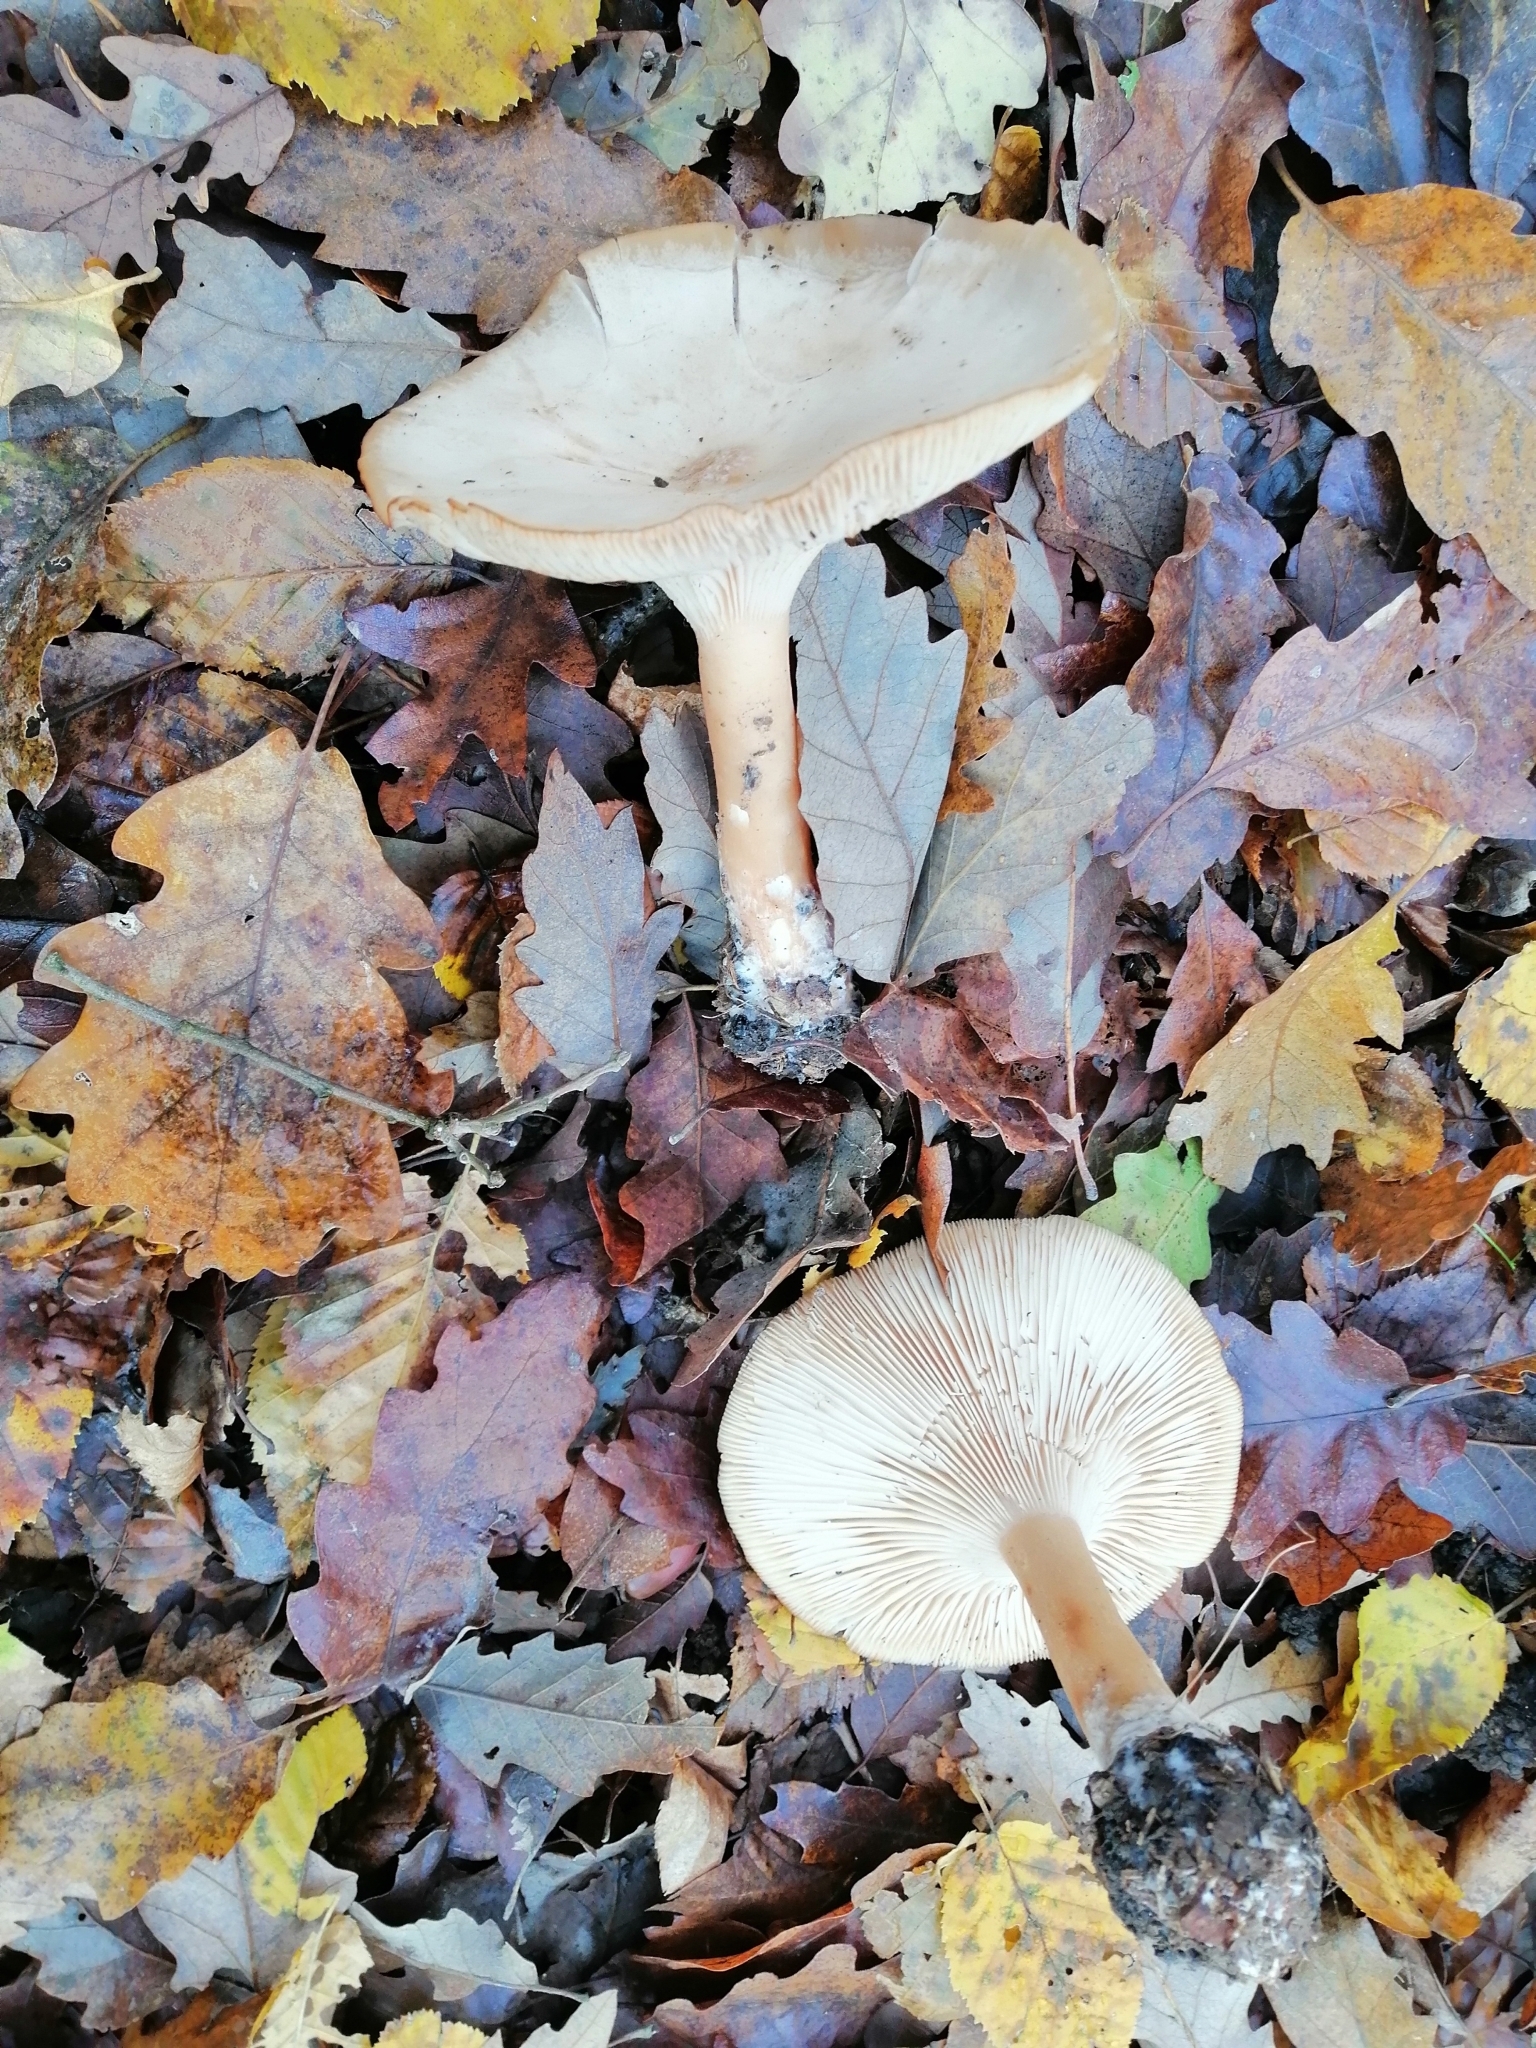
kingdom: Fungi
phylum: Basidiomycota
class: Agaricomycetes
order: Agaricales
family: Tricholomataceae
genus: Infundibulicybe
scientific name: Infundibulicybe geotropa
